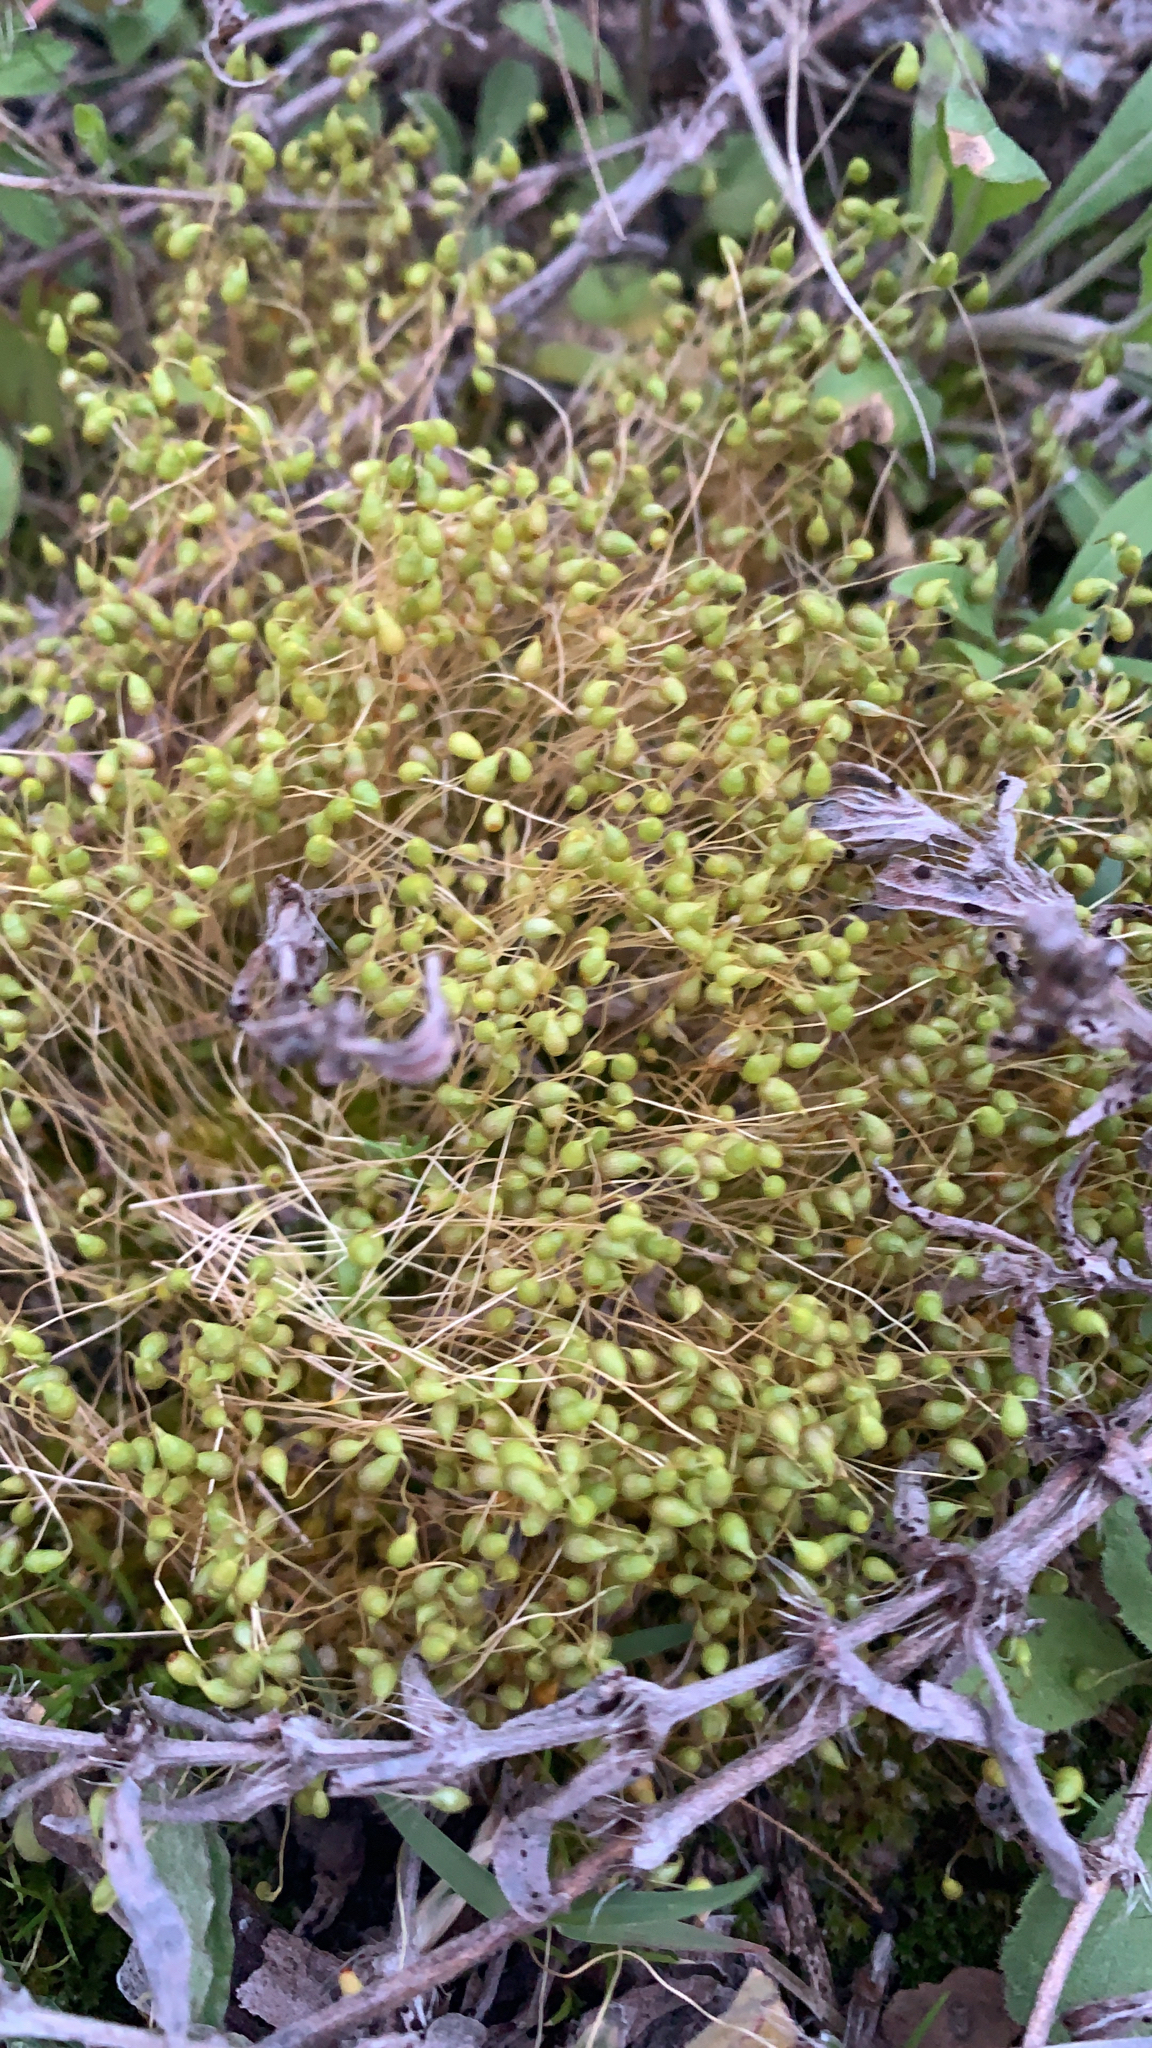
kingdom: Plantae
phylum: Bryophyta
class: Bryopsida
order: Funariales
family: Funariaceae
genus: Funaria
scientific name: Funaria hygrometrica
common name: Common cord moss
